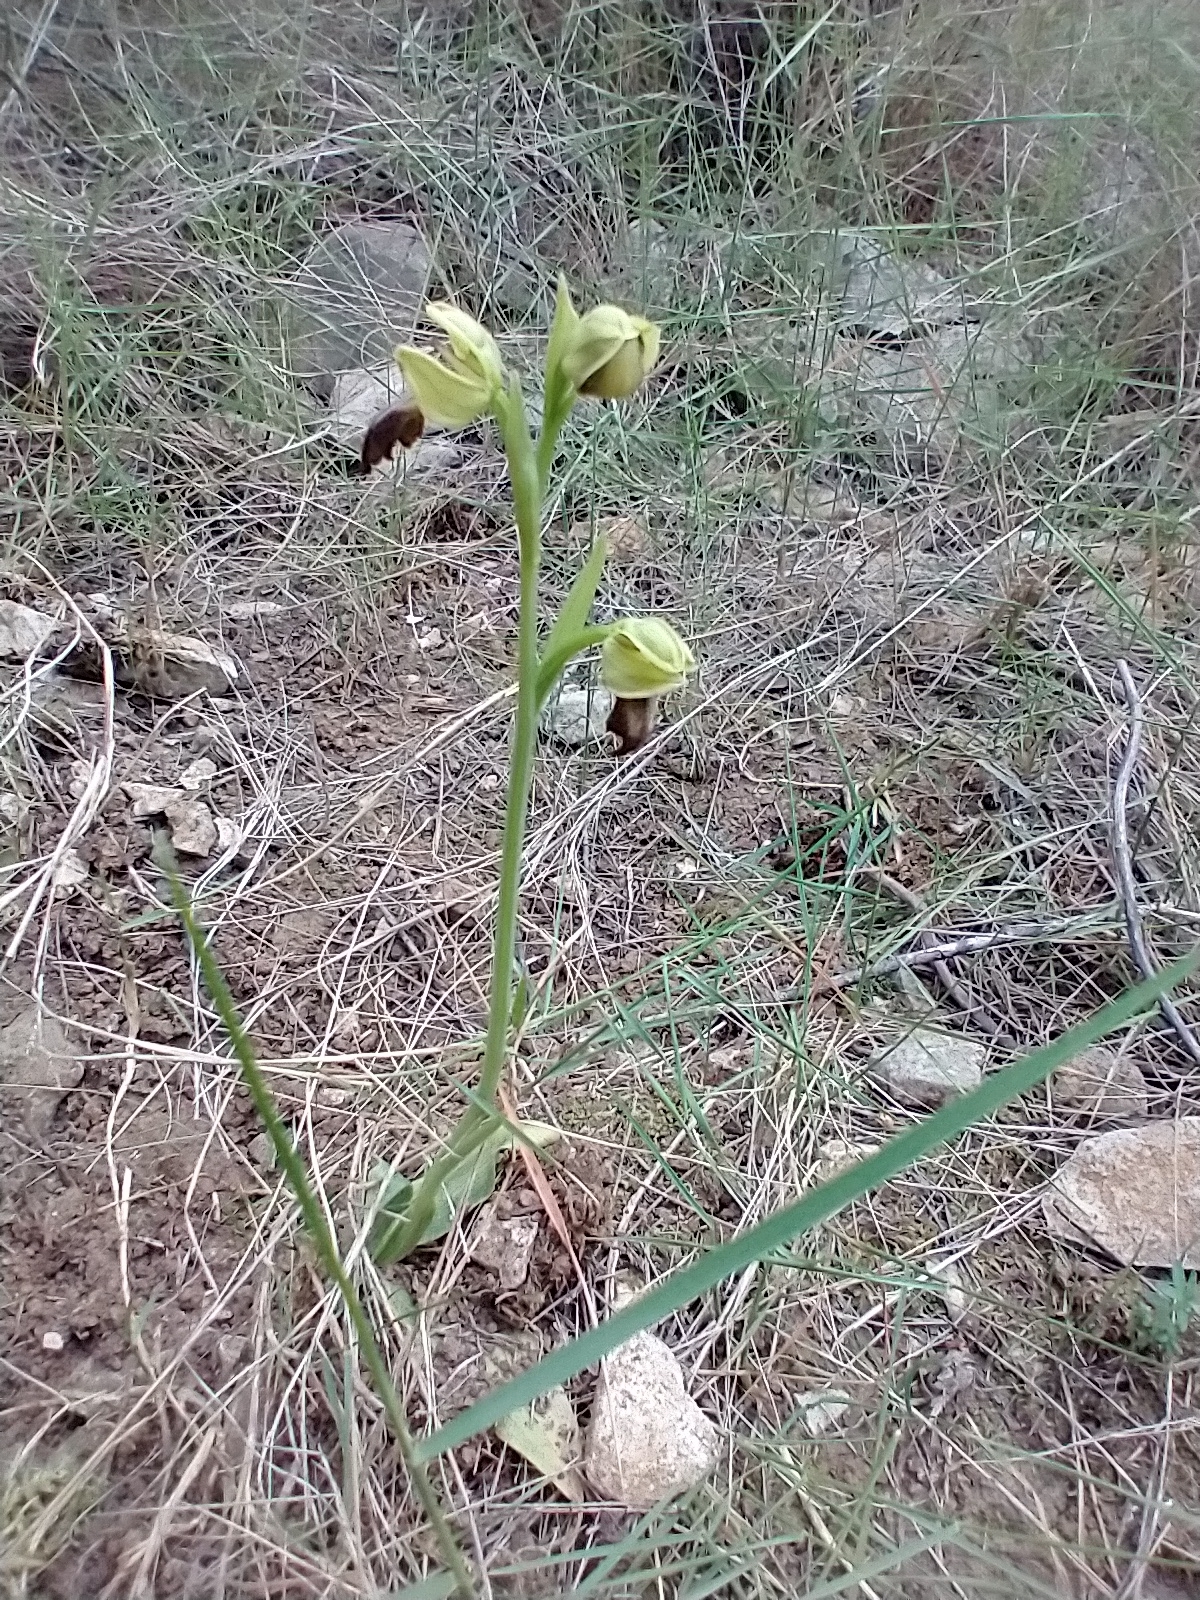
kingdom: Plantae
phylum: Tracheophyta
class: Liliopsida
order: Asparagales
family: Orchidaceae
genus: Ophrys
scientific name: Ophrys fusca
